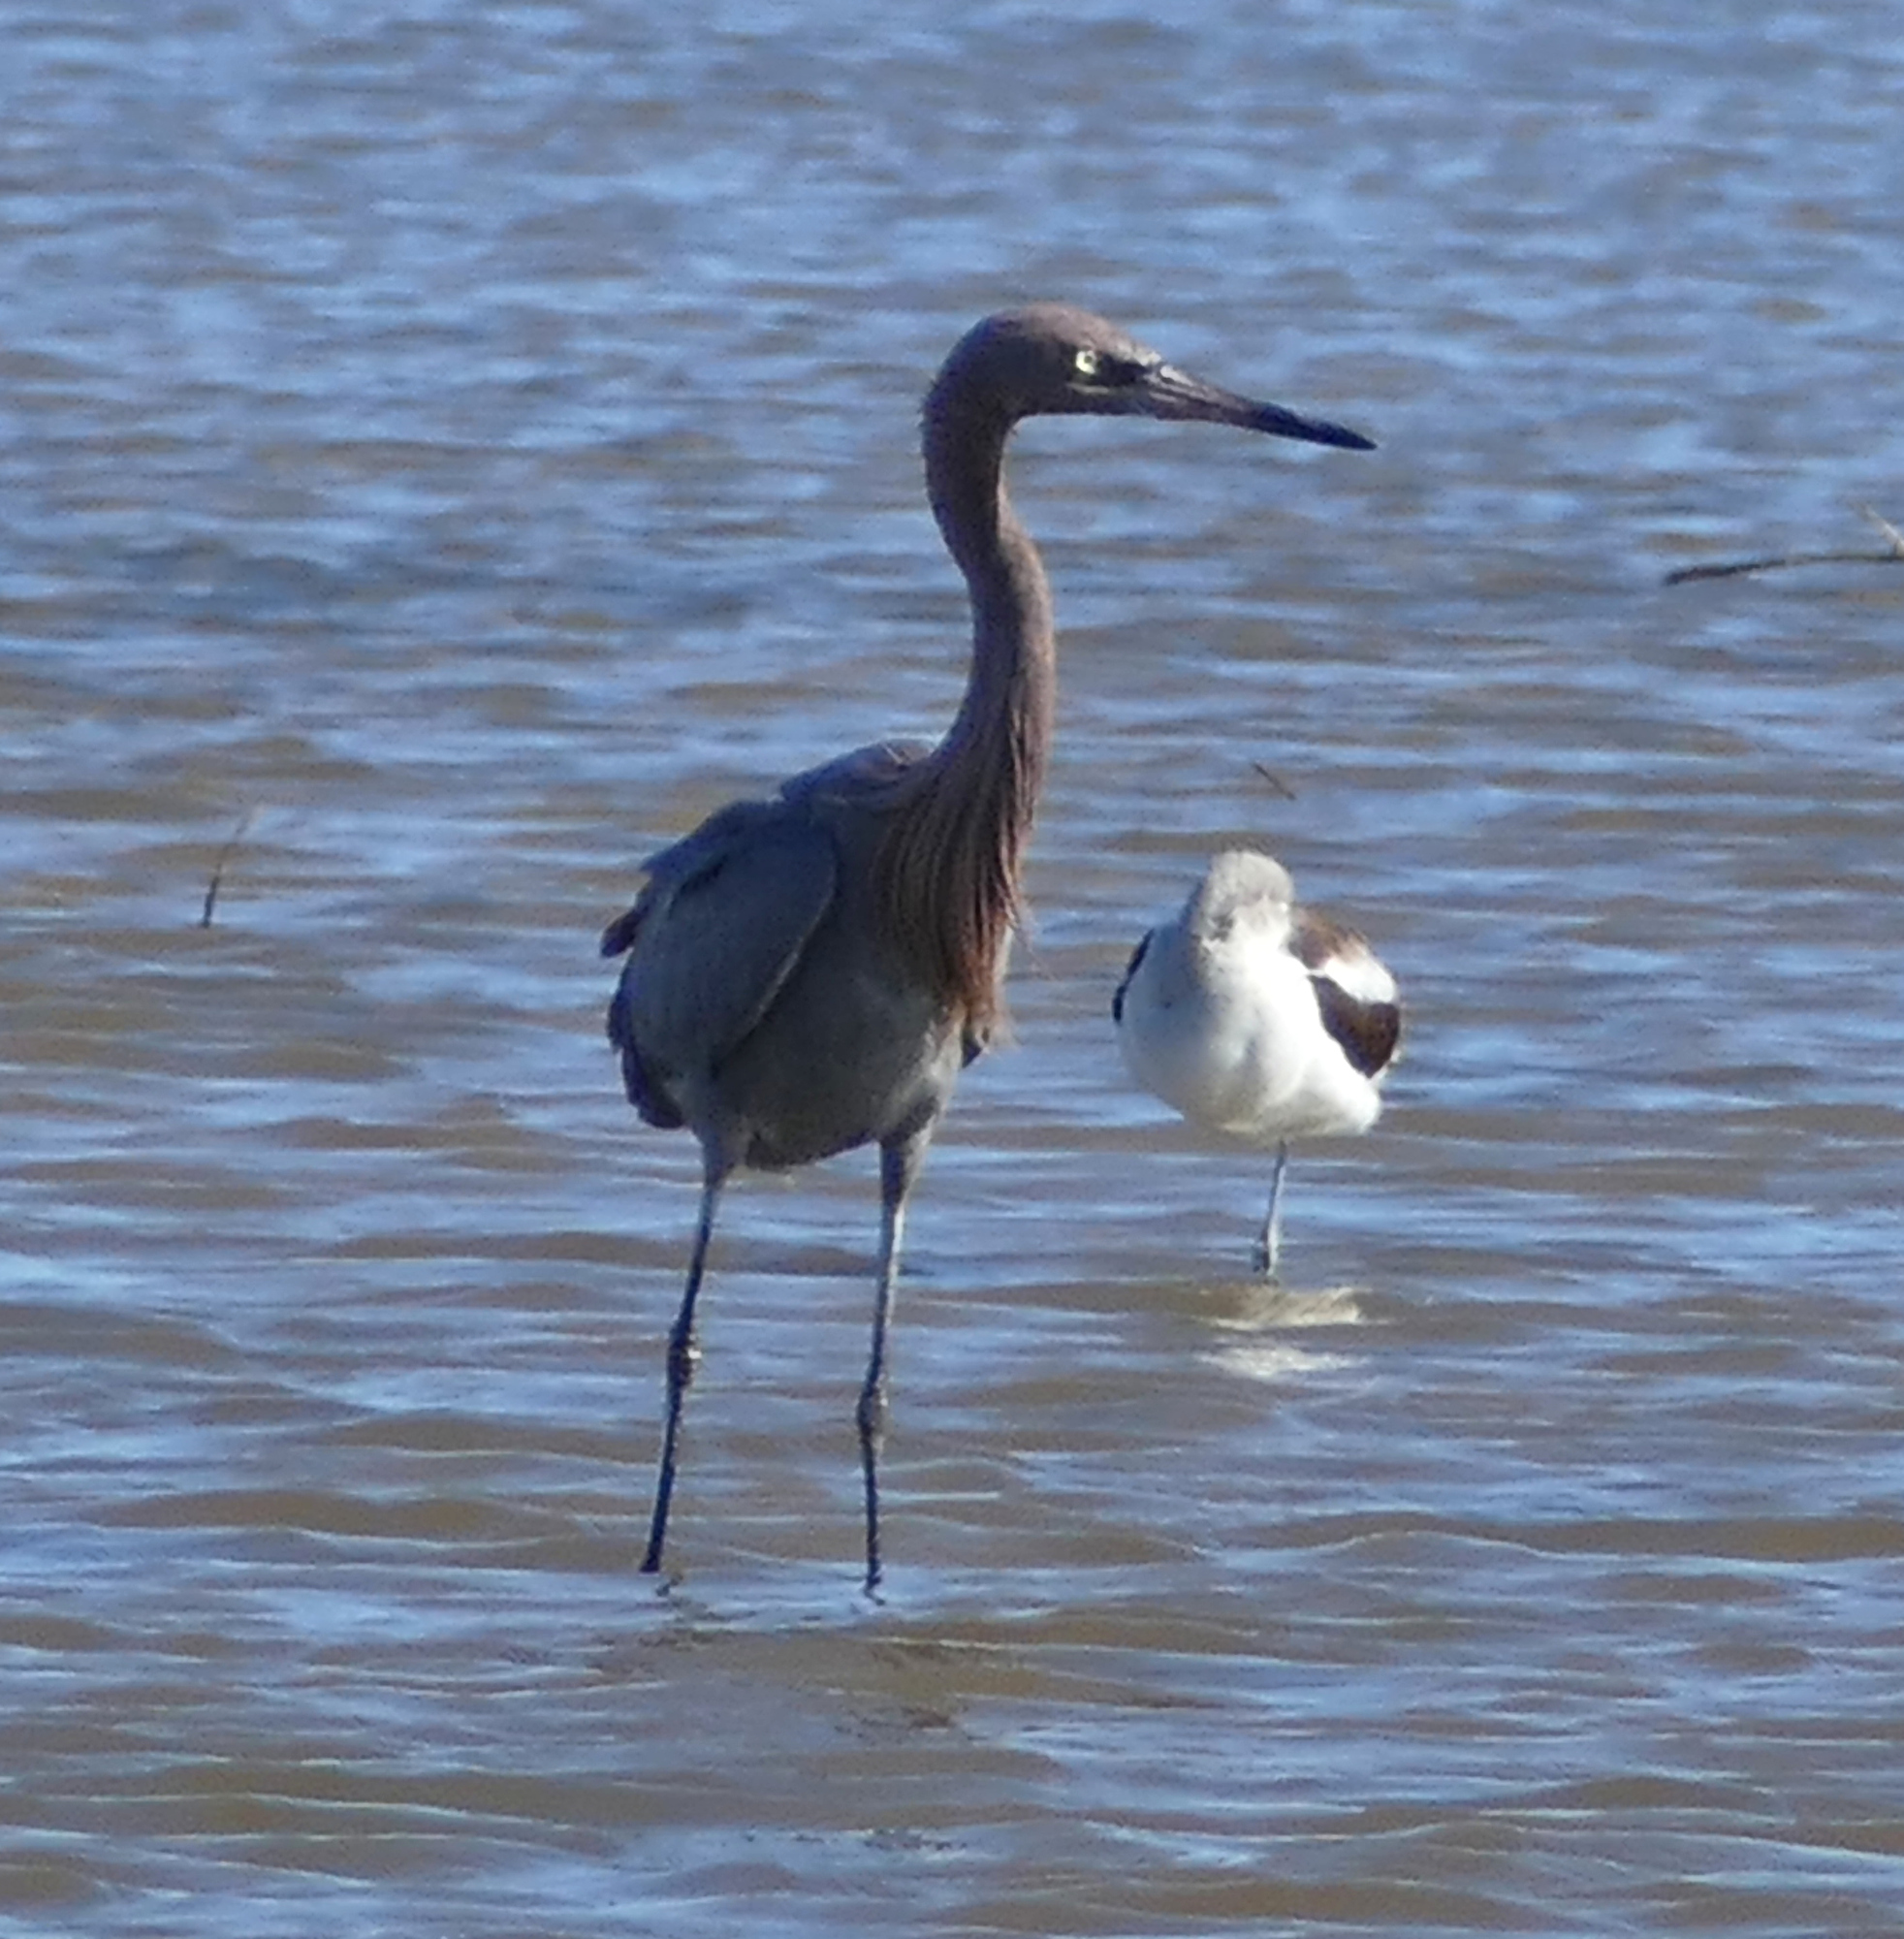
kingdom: Animalia
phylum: Chordata
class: Aves
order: Pelecaniformes
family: Ardeidae
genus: Egretta
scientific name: Egretta rufescens
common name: Reddish egret
